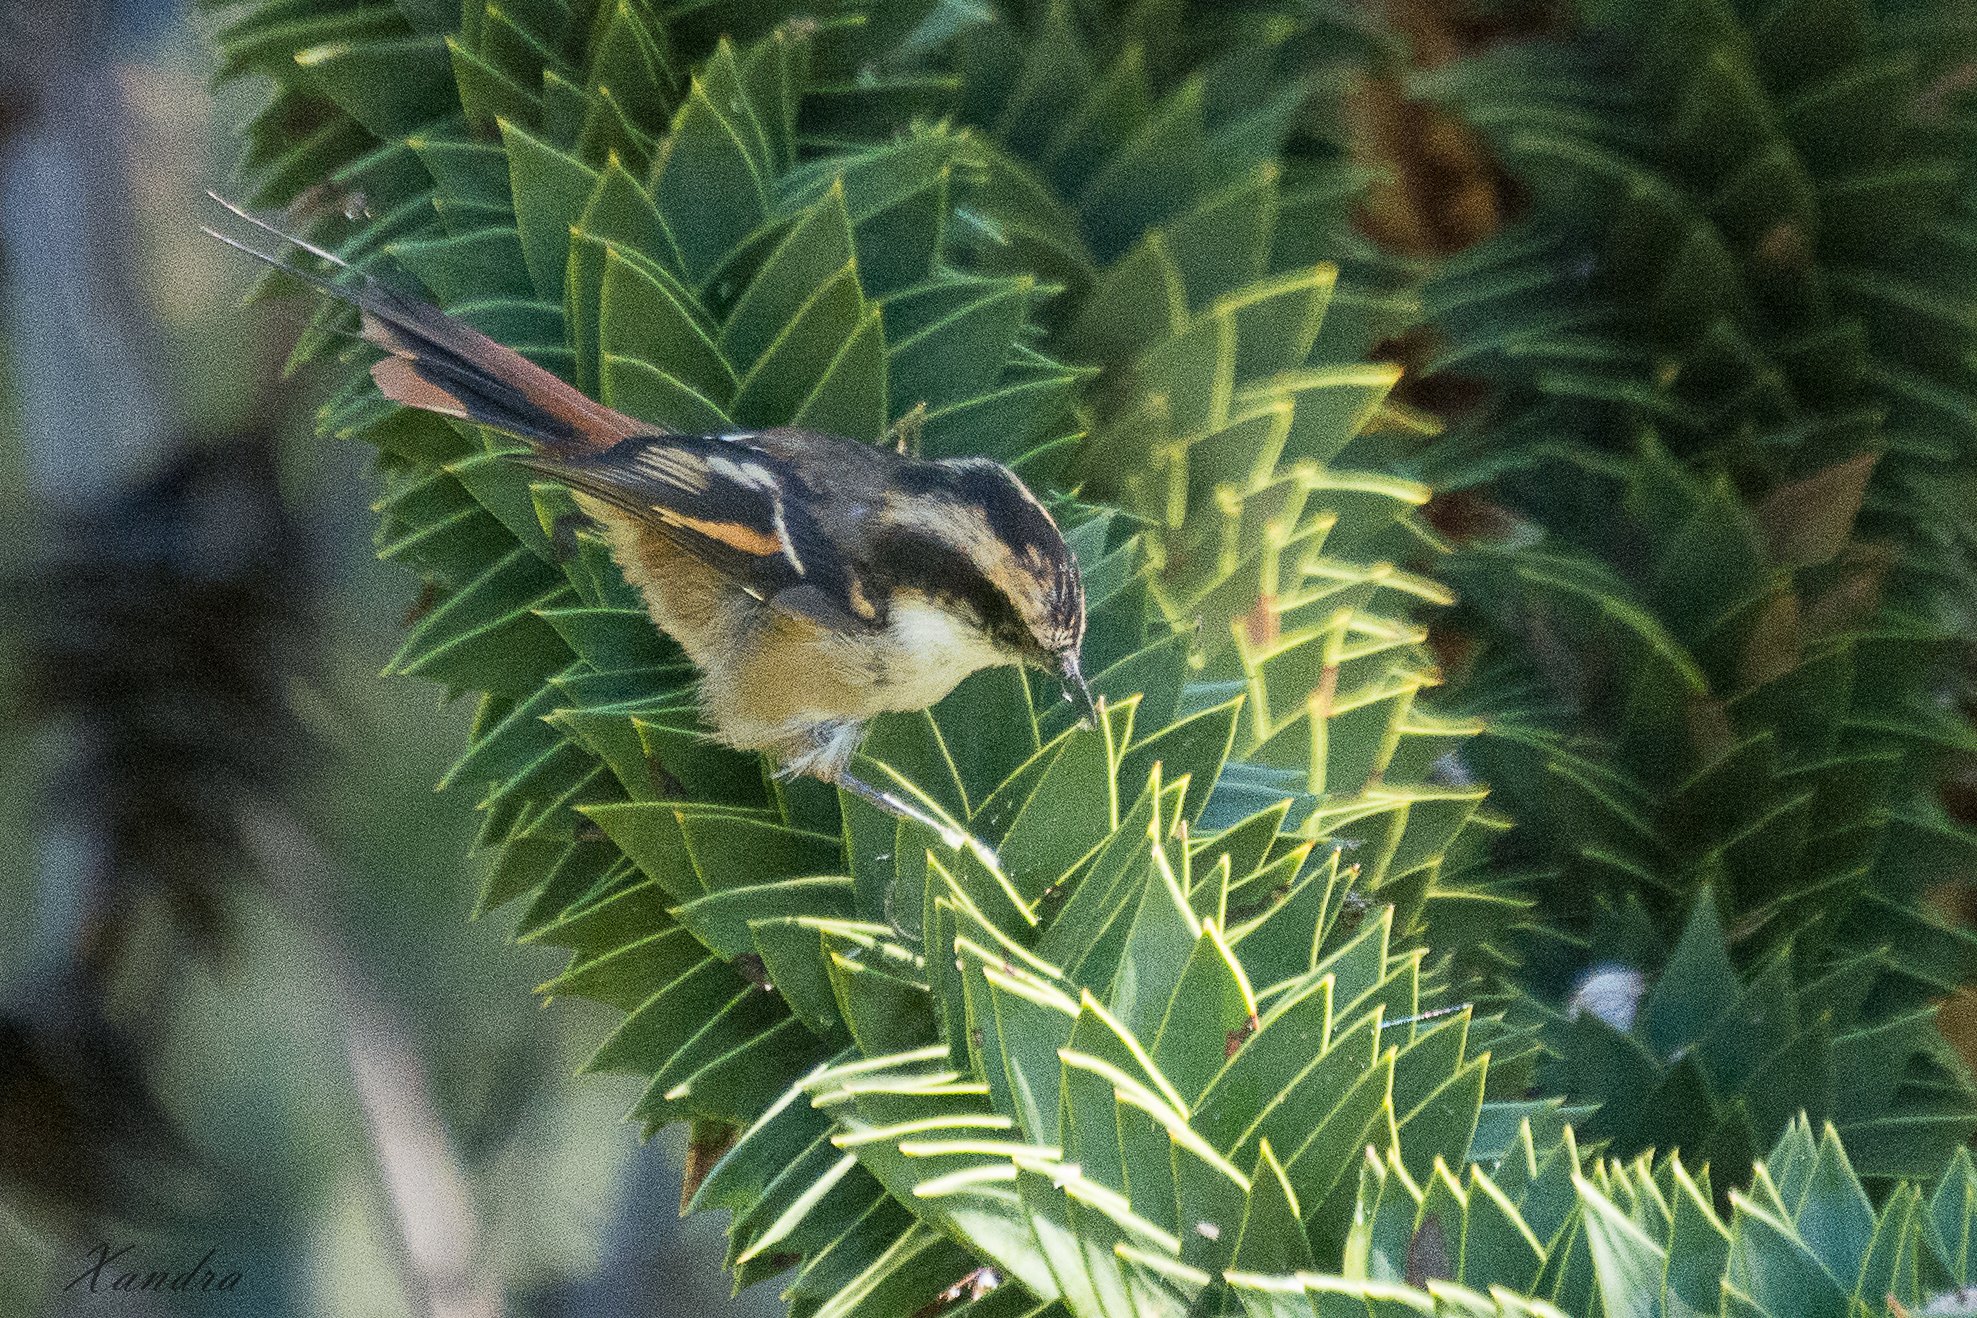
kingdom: Animalia
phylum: Chordata
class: Aves
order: Passeriformes
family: Furnariidae
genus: Aphrastura
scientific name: Aphrastura spinicauda
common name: Thorn-tailed rayadito
